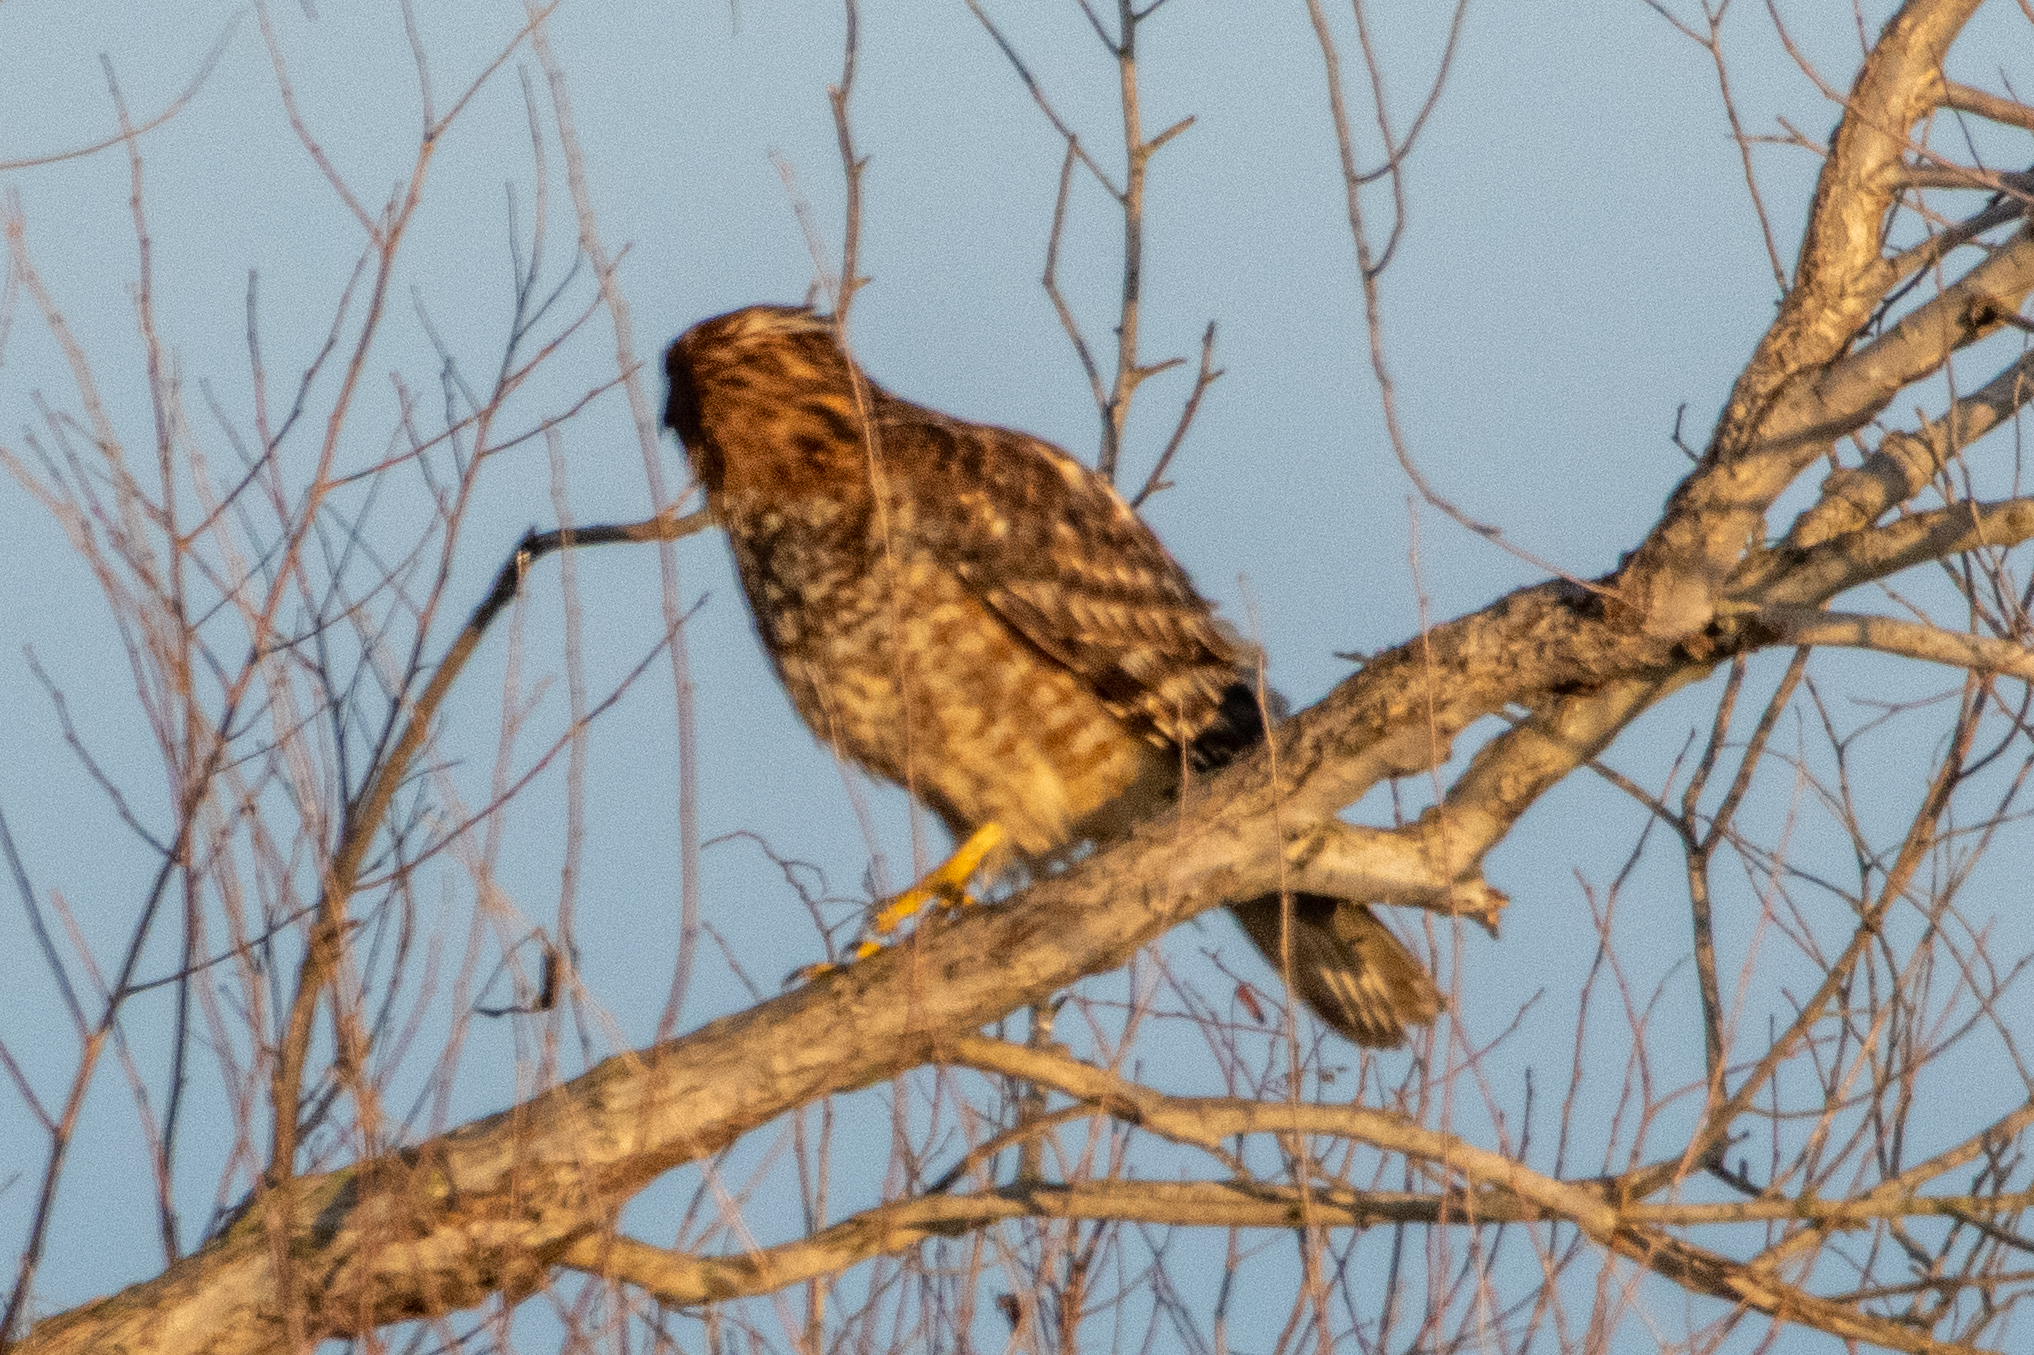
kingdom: Animalia
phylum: Chordata
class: Aves
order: Accipitriformes
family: Accipitridae
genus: Buteo
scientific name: Buteo lineatus
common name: Red-shouldered hawk
